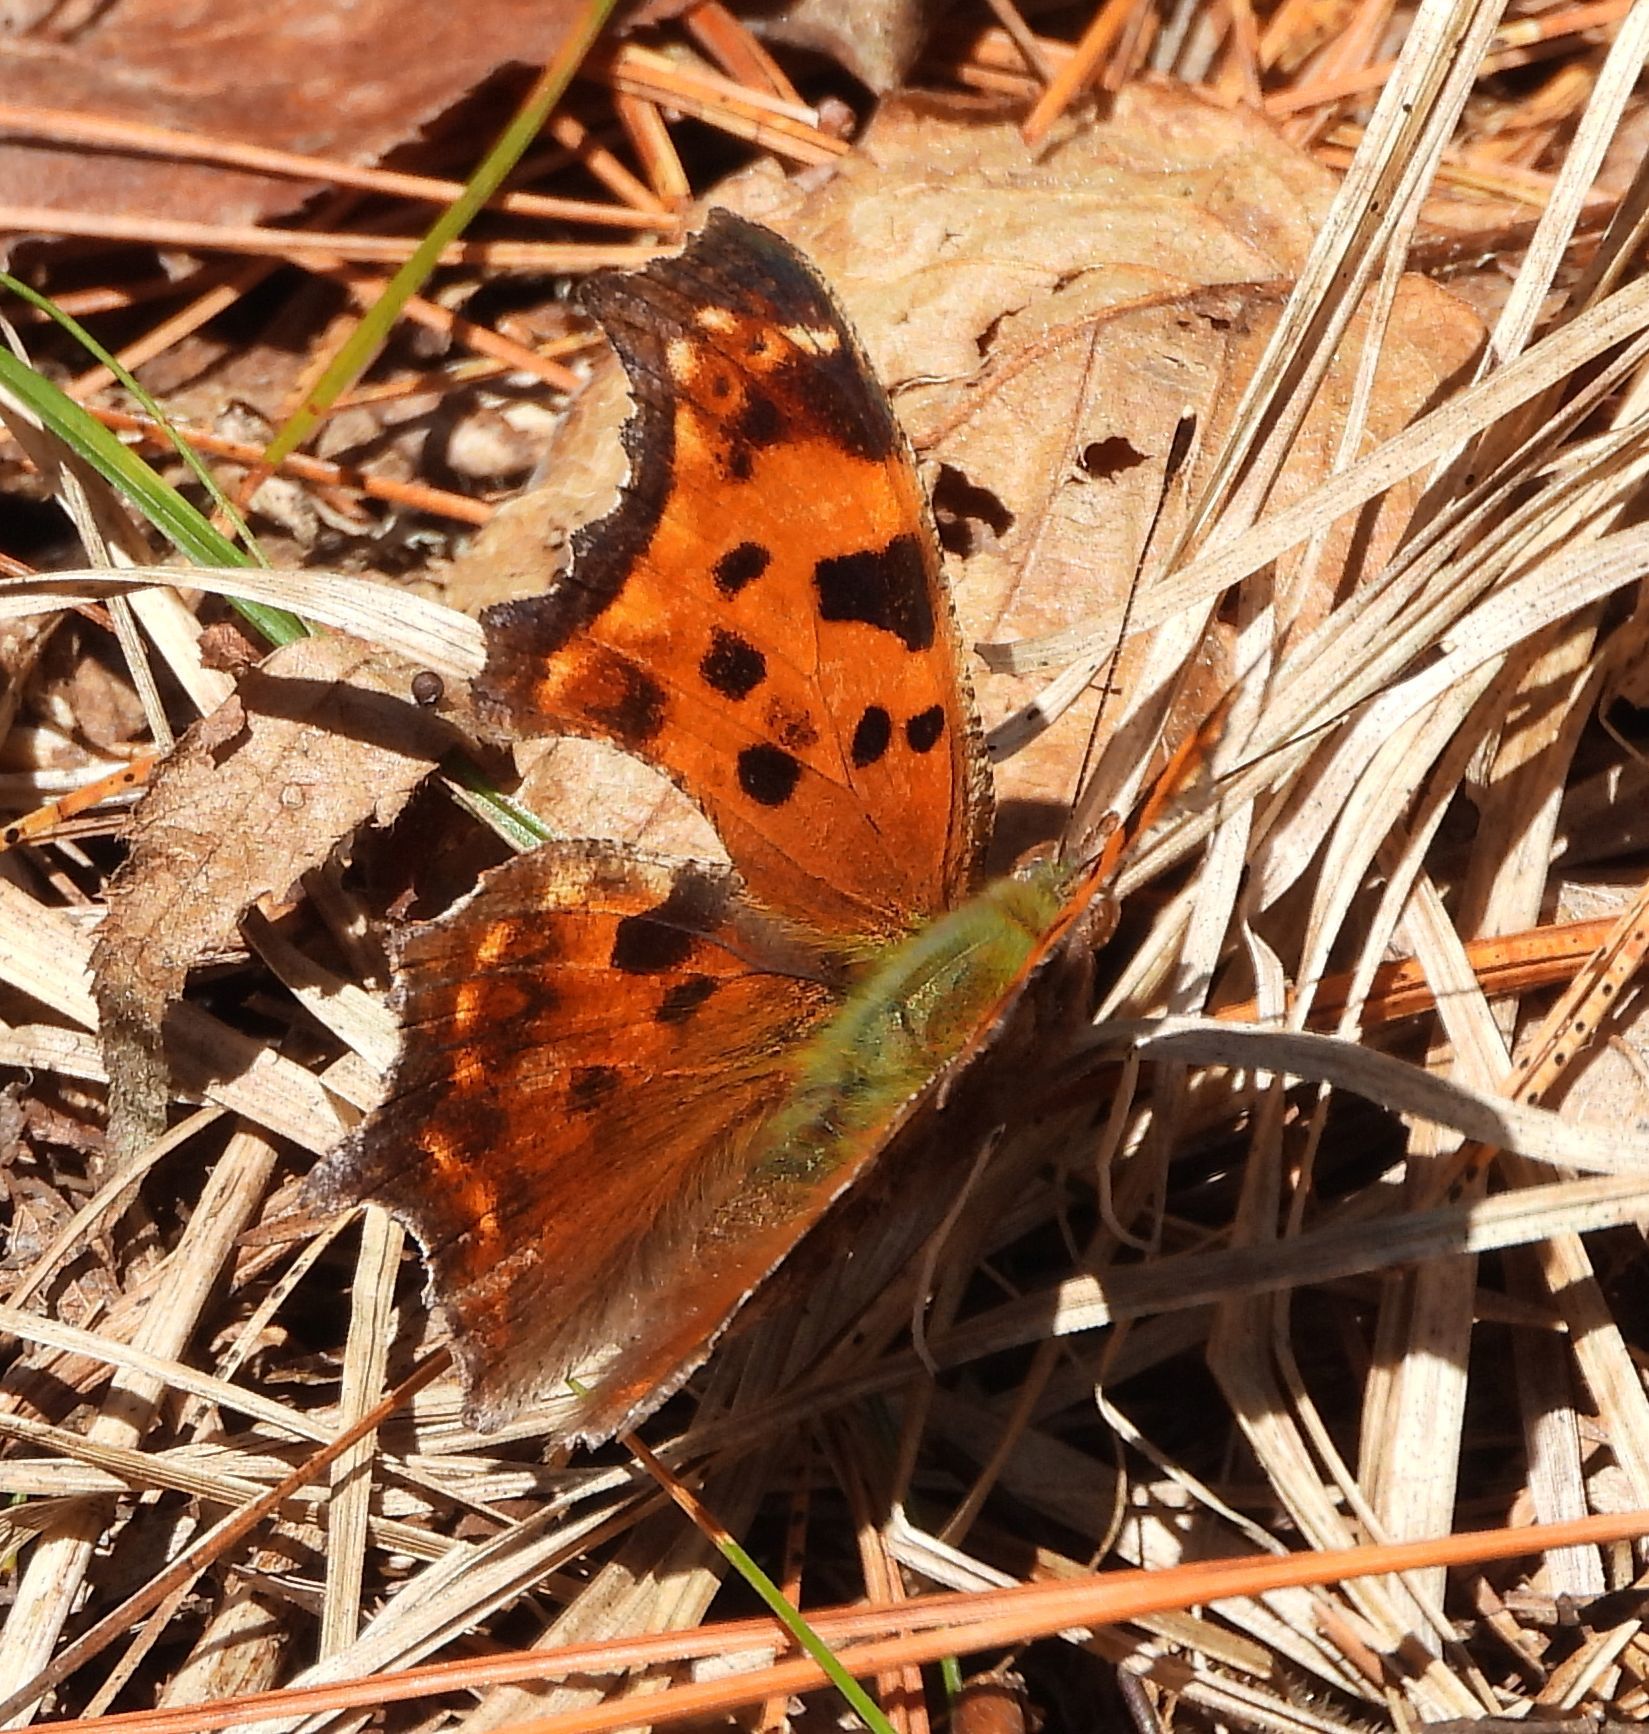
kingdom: Animalia
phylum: Arthropoda
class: Insecta
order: Lepidoptera
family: Nymphalidae
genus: Polygonia
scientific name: Polygonia comma
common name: Eastern comma
